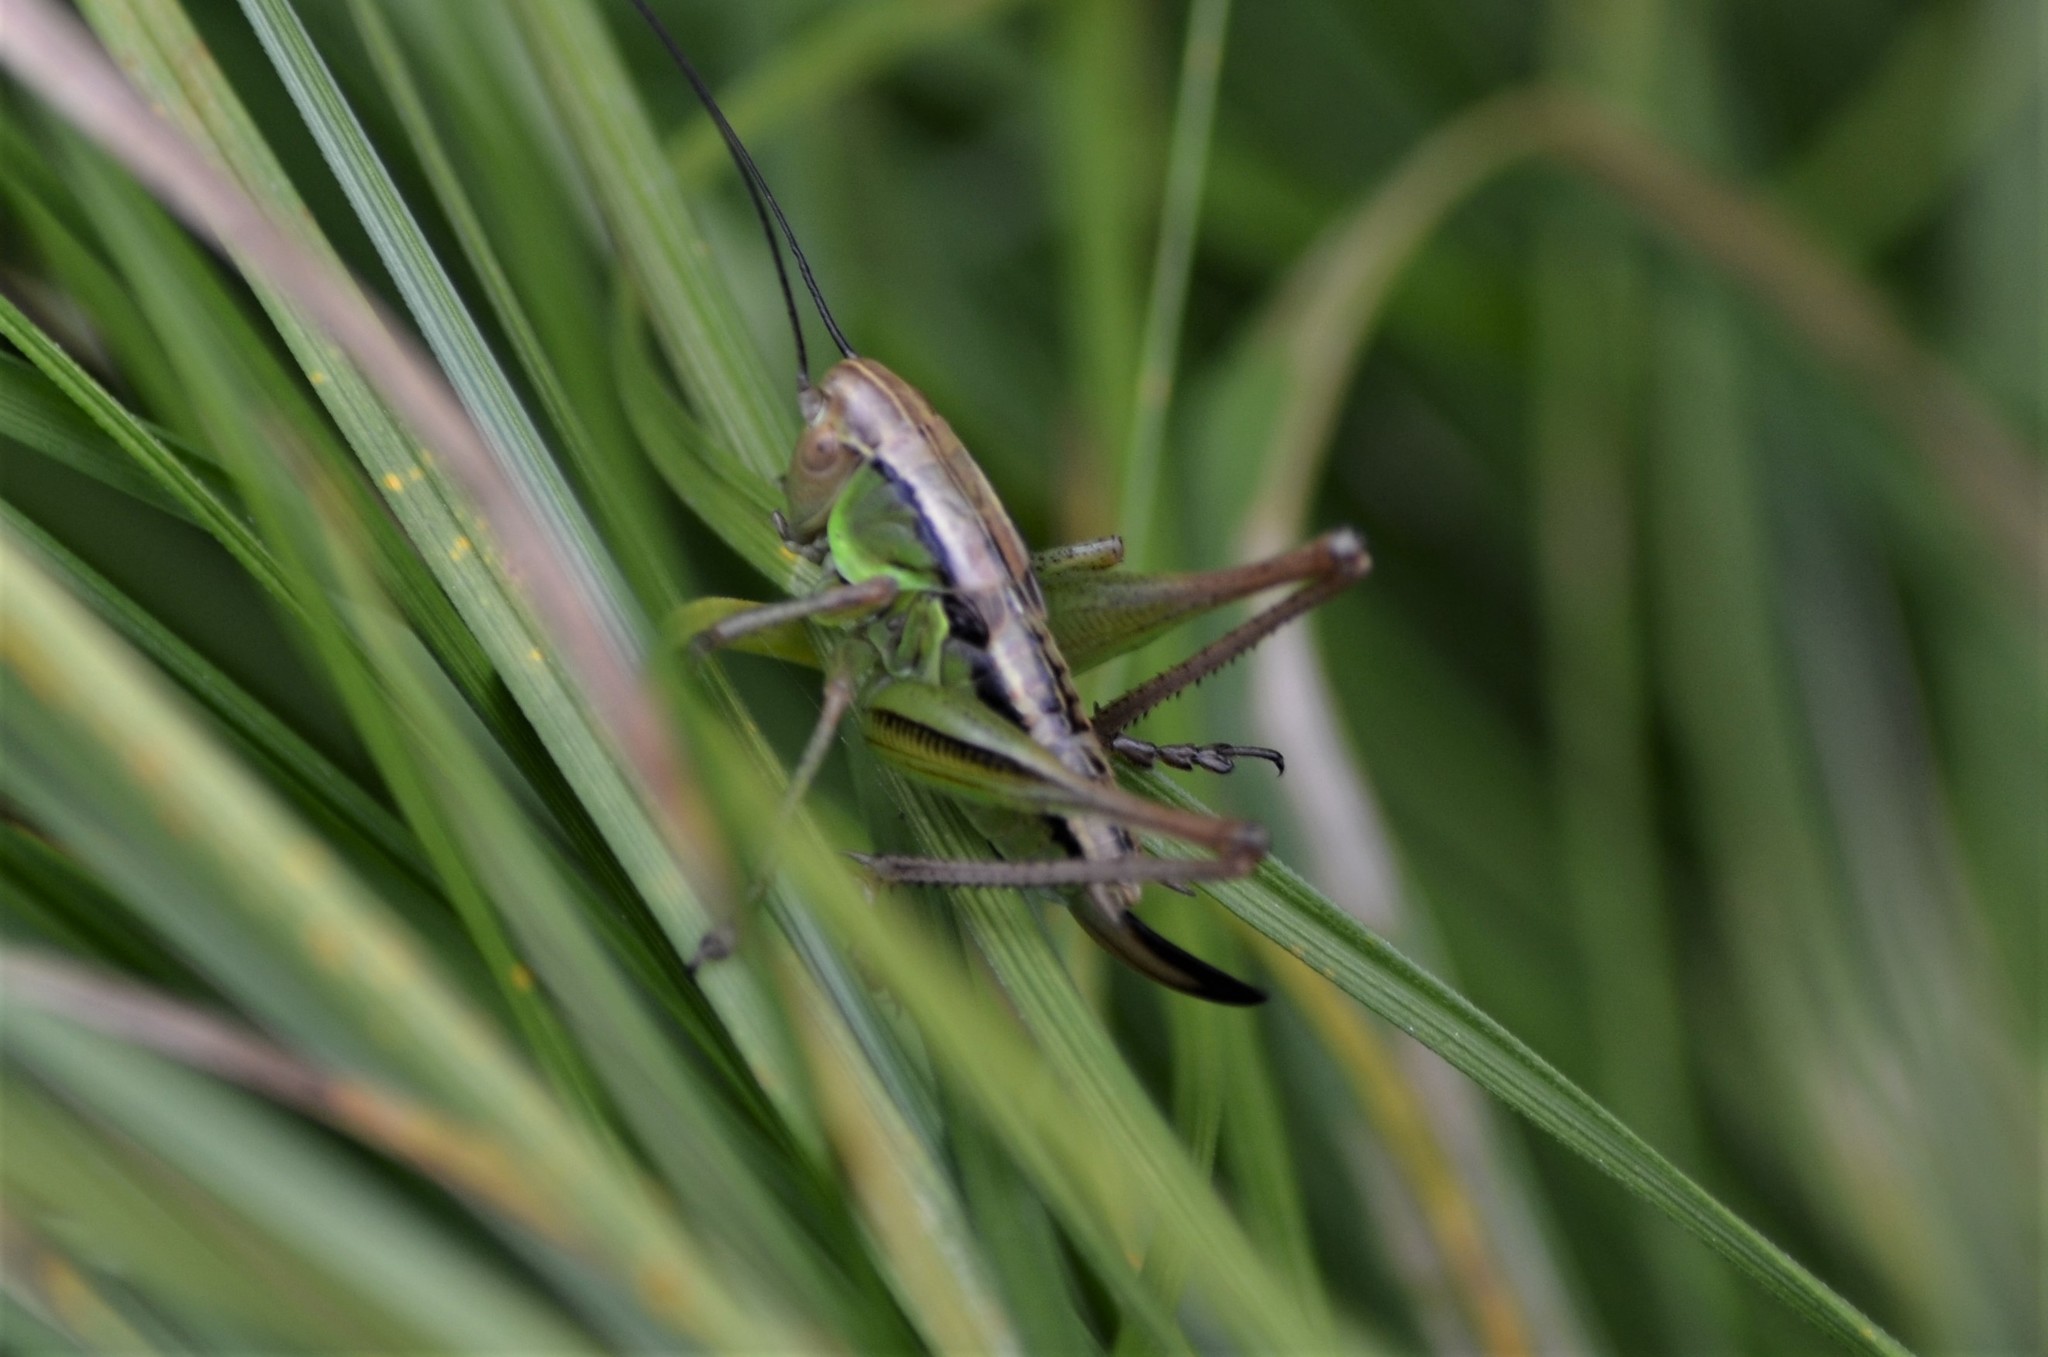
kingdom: Animalia
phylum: Arthropoda
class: Insecta
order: Orthoptera
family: Tettigoniidae
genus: Roeseliana
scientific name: Roeseliana roeselii
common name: Roesel's bush cricket
